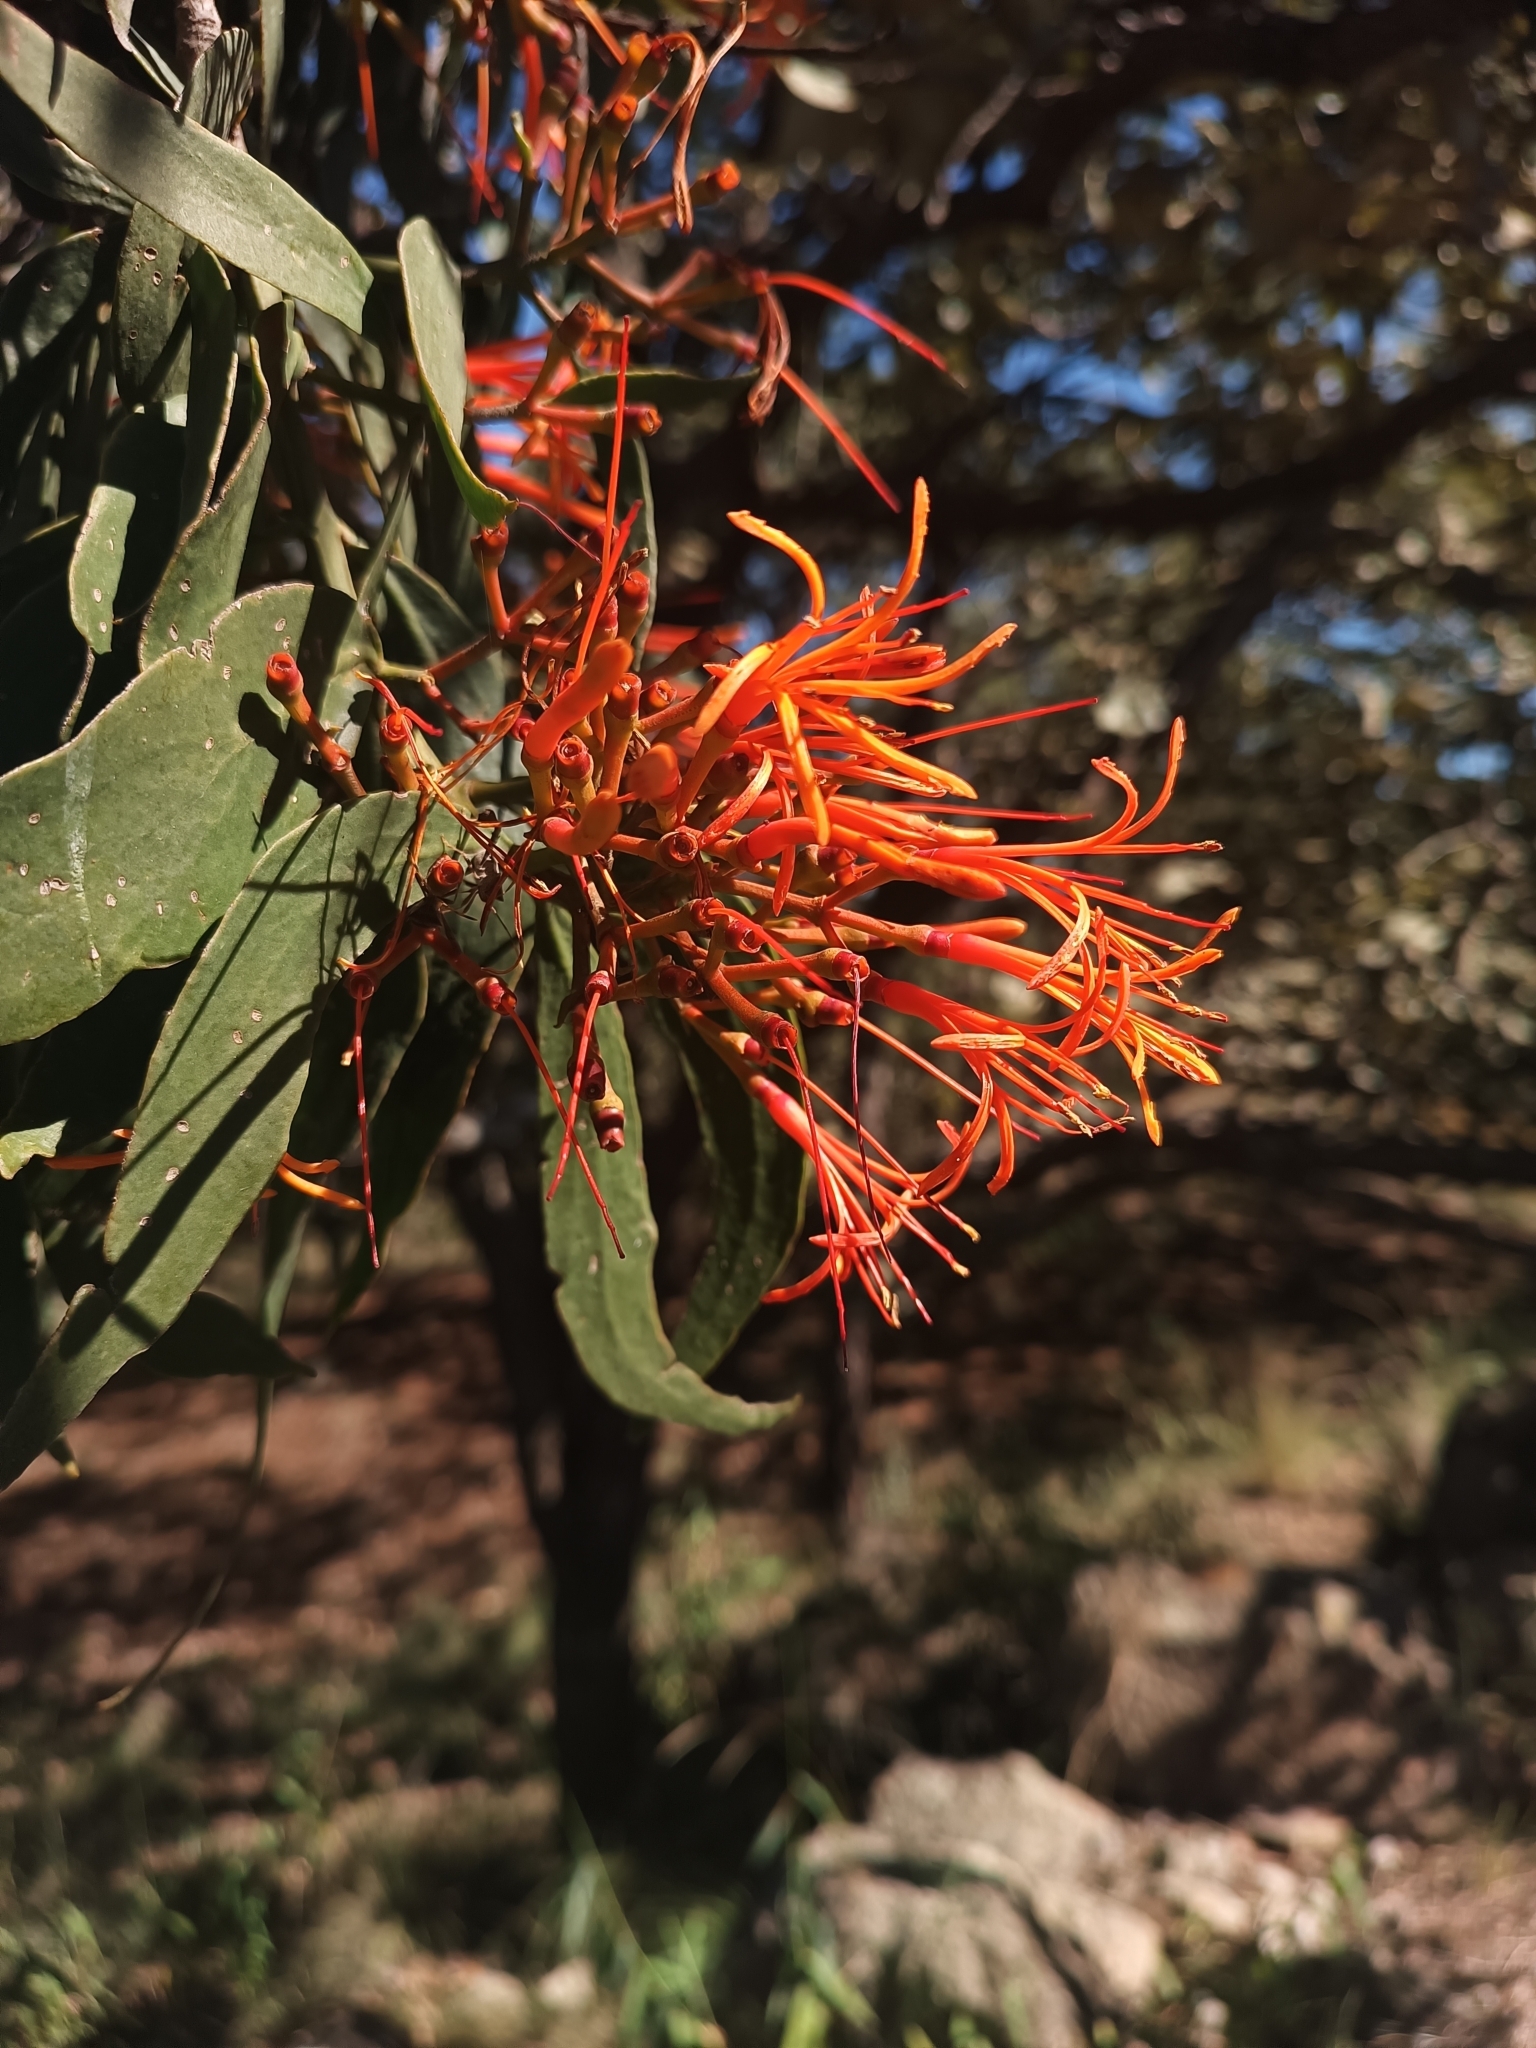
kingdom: Plantae
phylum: Tracheophyta
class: Magnoliopsida
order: Santalales
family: Loranthaceae
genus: Psittacanthus
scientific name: Psittacanthus calyculatus
